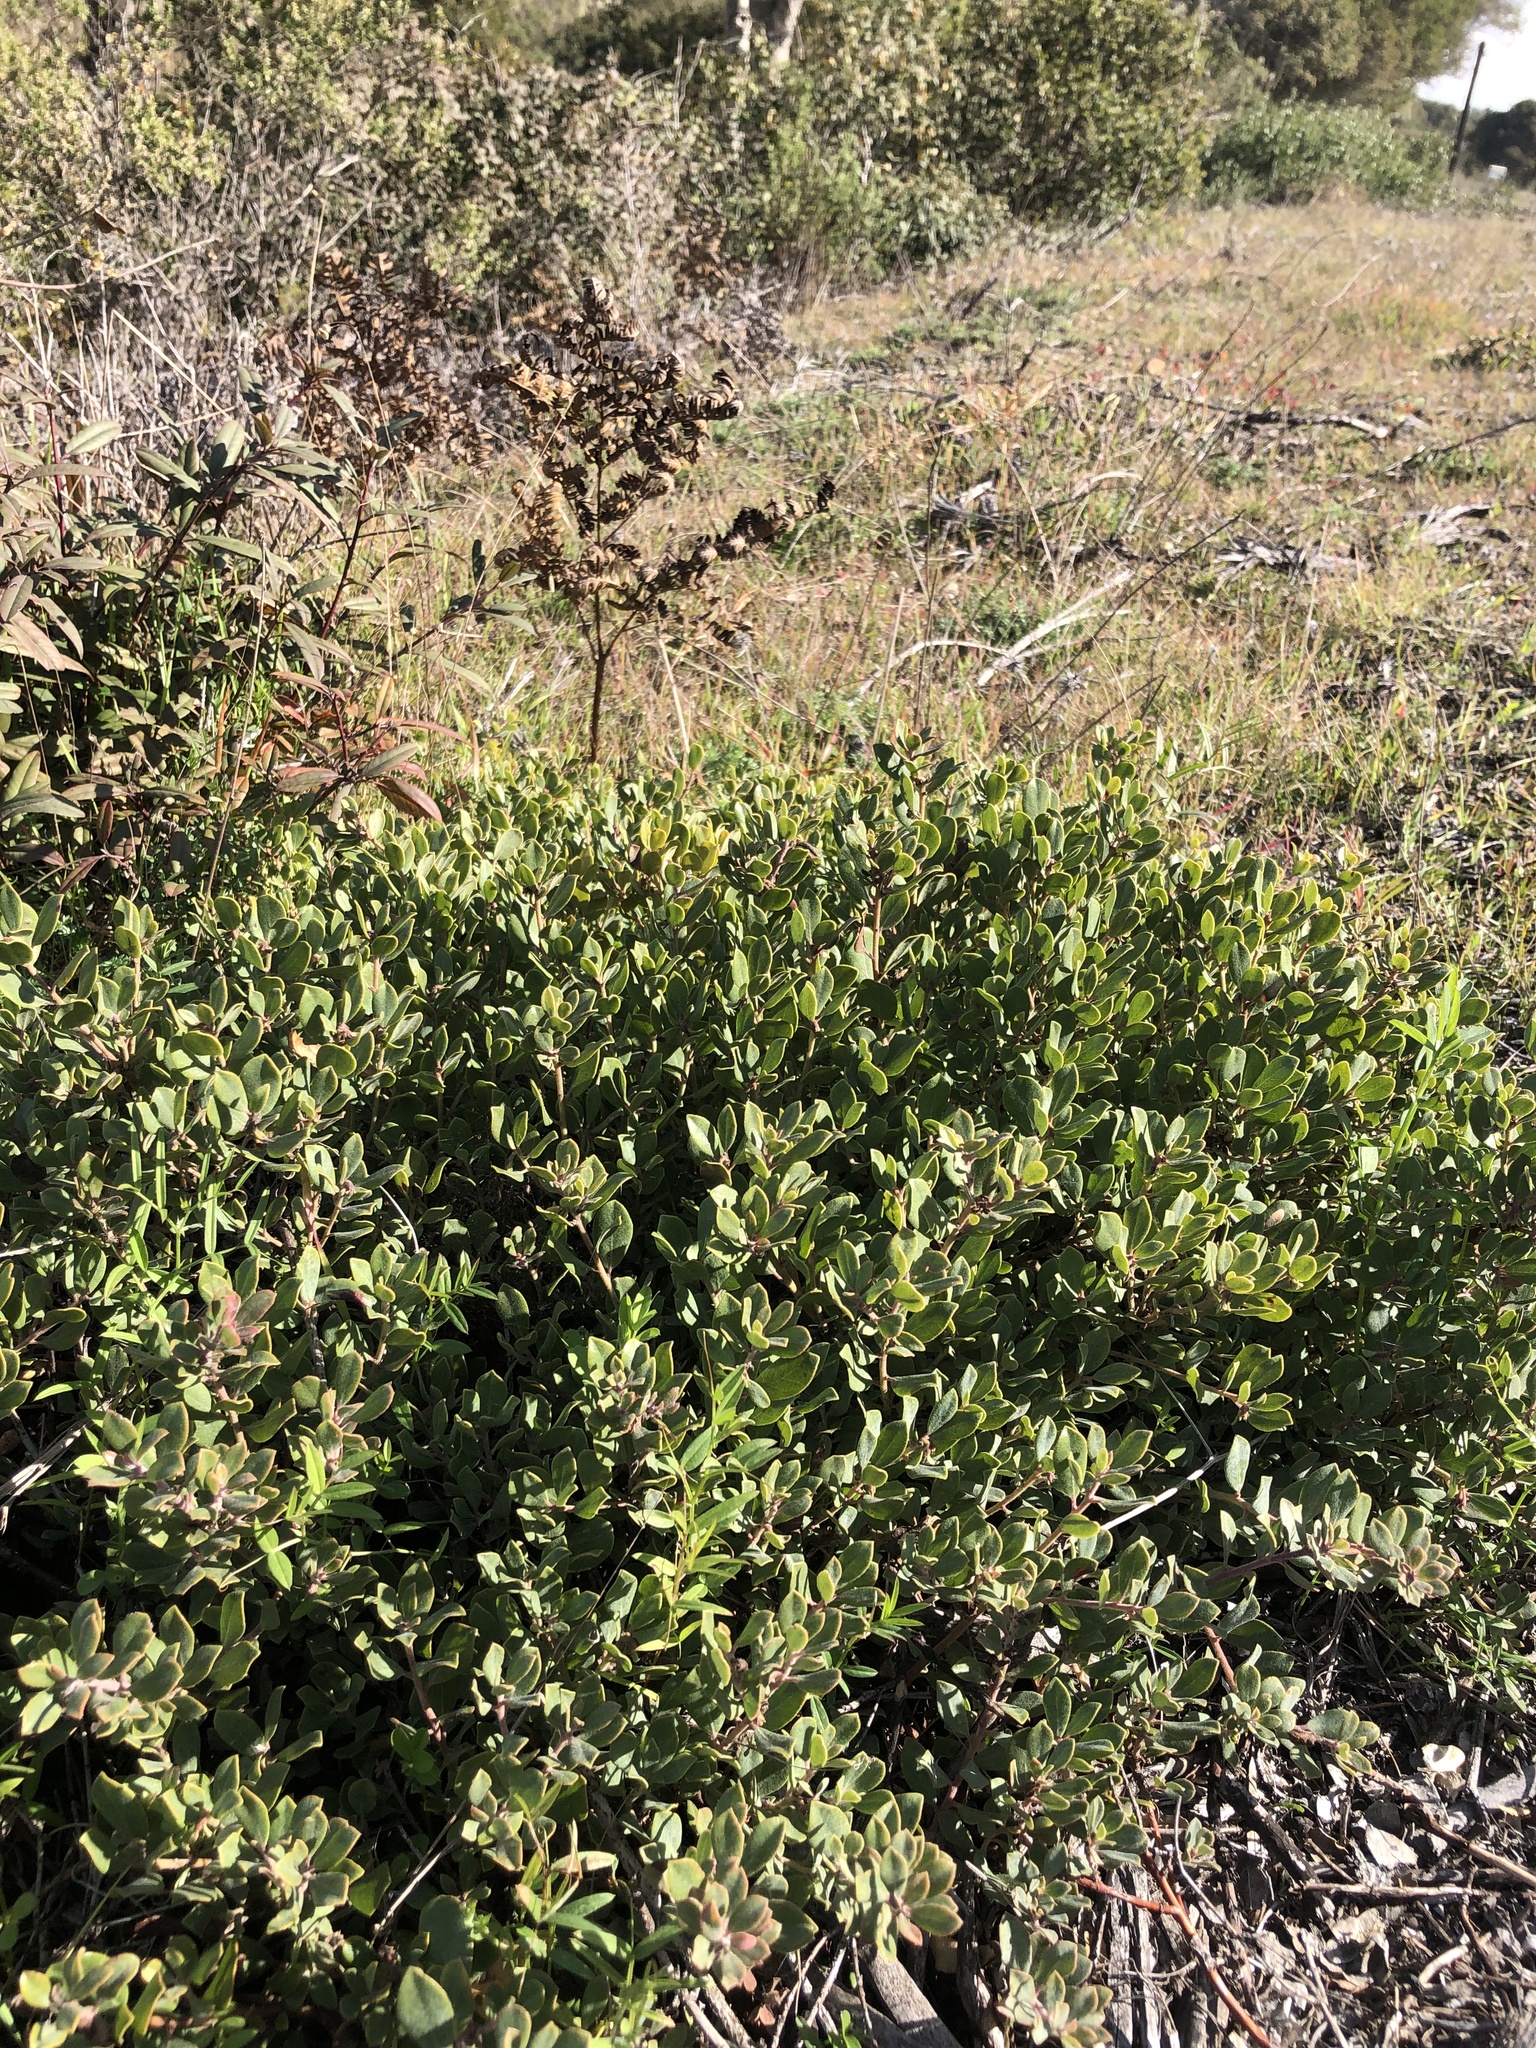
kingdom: Plantae
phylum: Tracheophyta
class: Magnoliopsida
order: Ericales
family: Ericaceae
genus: Arctostaphylos
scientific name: Arctostaphylos pumila
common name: Sandmat manzanita
